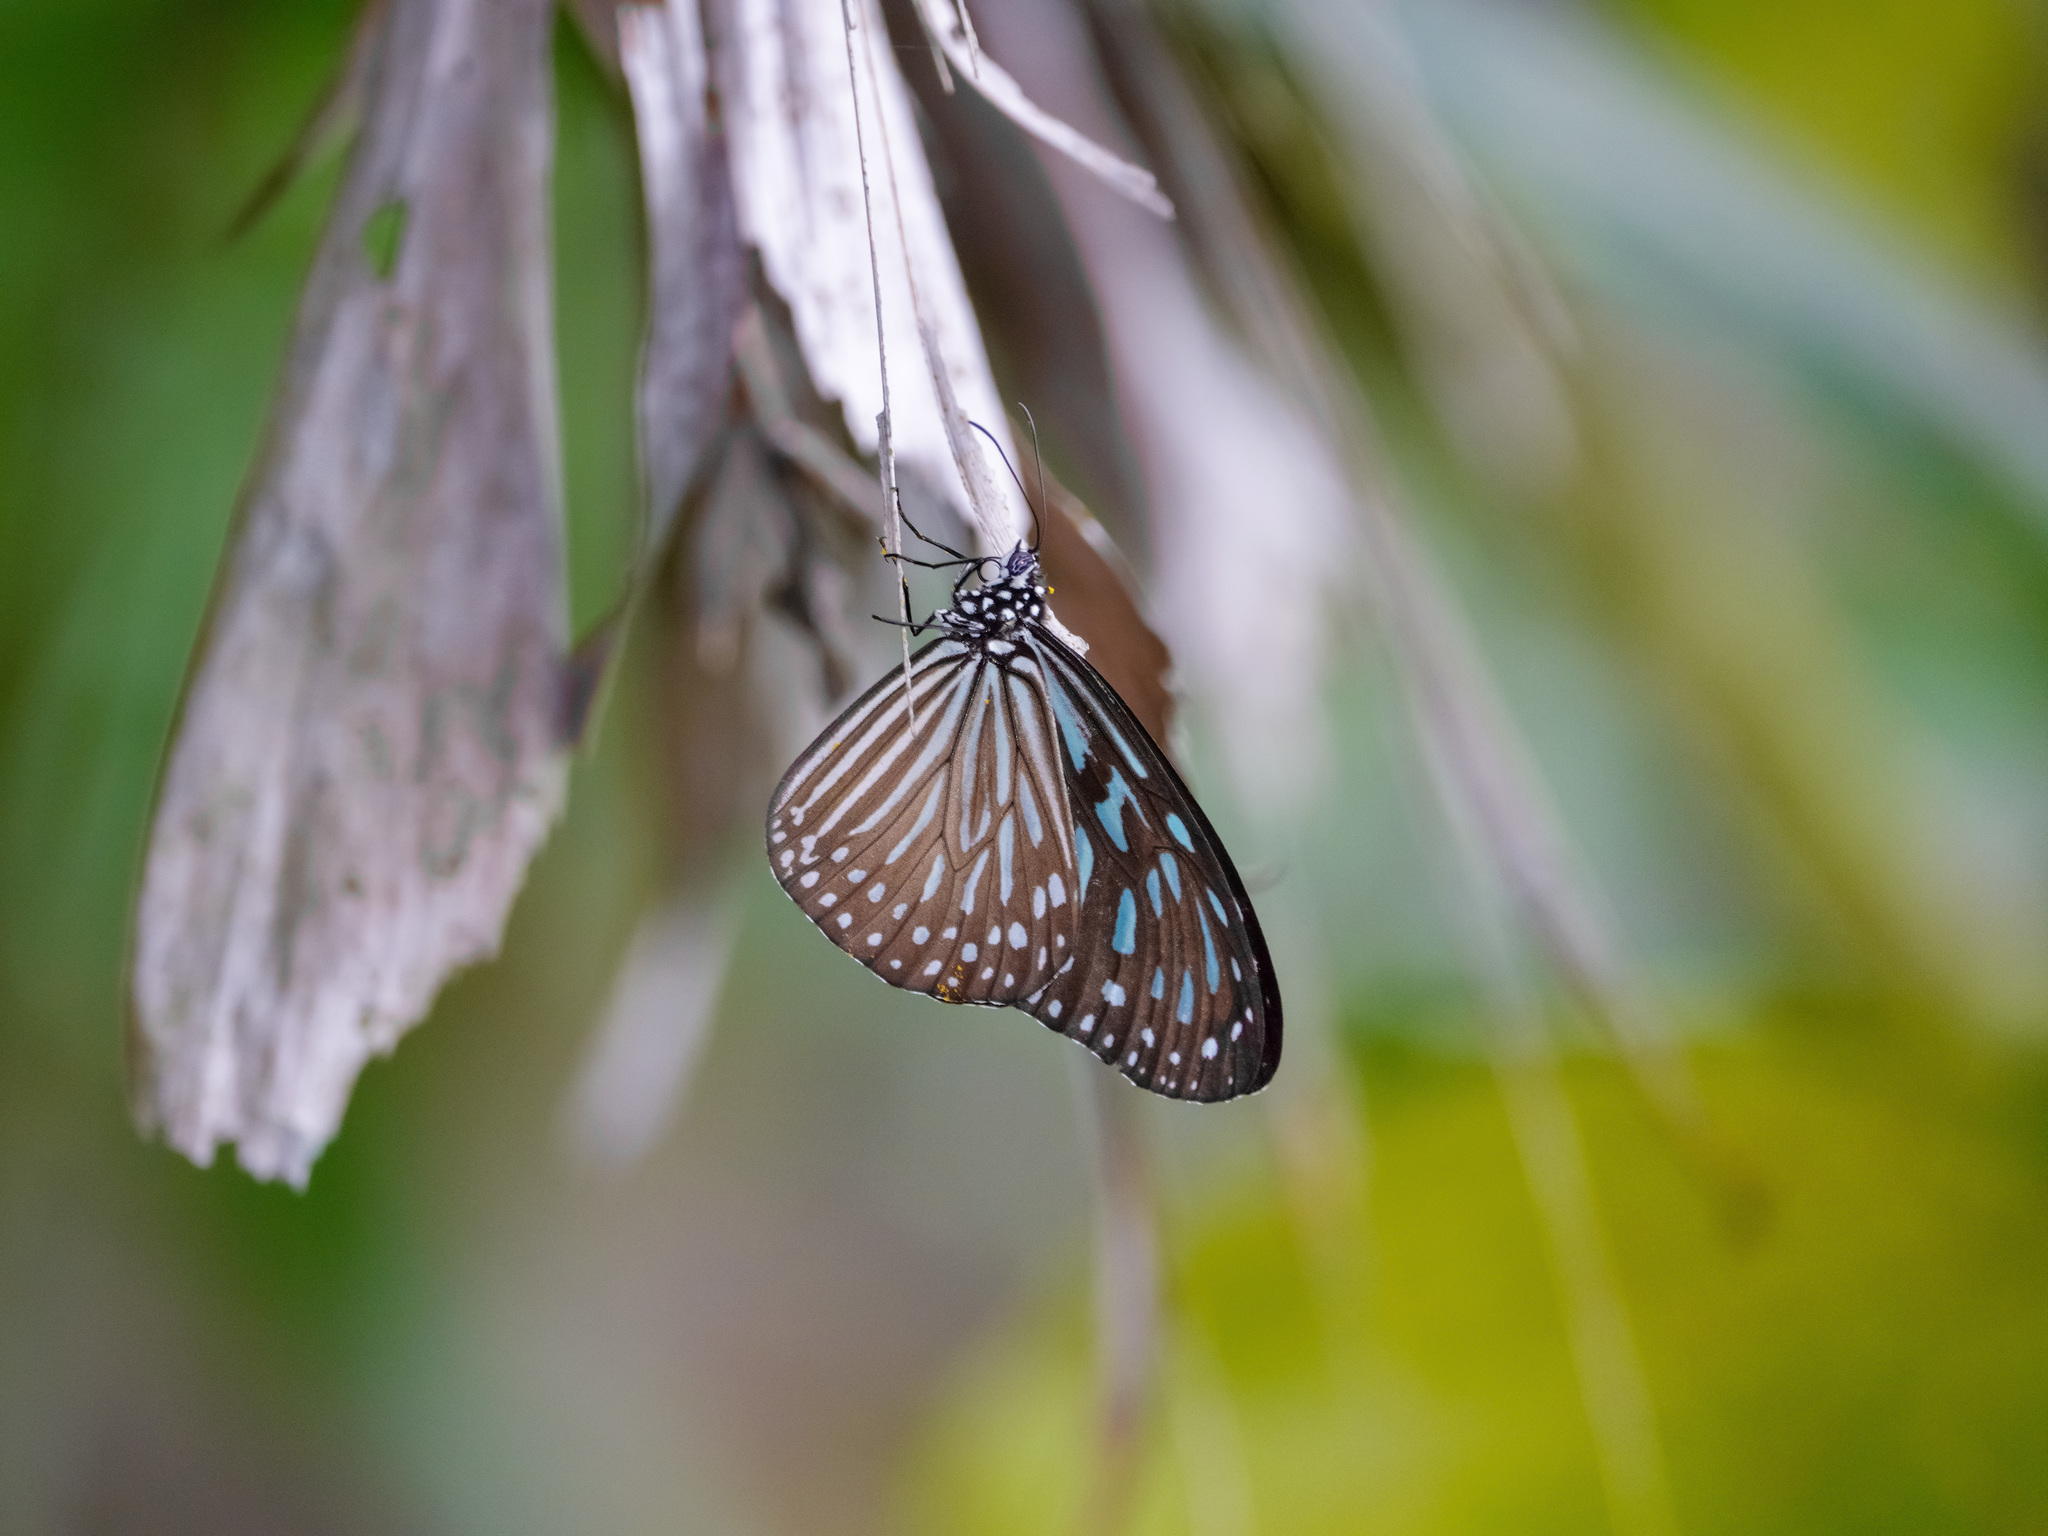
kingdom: Animalia
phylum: Arthropoda
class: Insecta
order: Lepidoptera
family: Nymphalidae
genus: Ideopsis
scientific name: Ideopsis vulgaris
